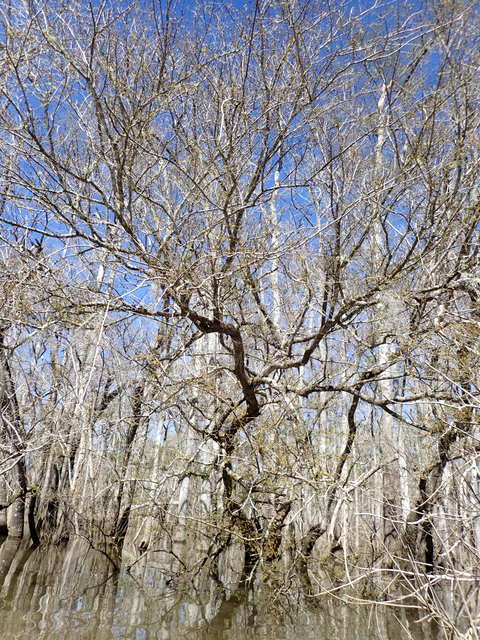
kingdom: Plantae
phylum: Tracheophyta
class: Magnoliopsida
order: Rosales
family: Ulmaceae
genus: Planera
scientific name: Planera aquatica
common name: Water-elm
